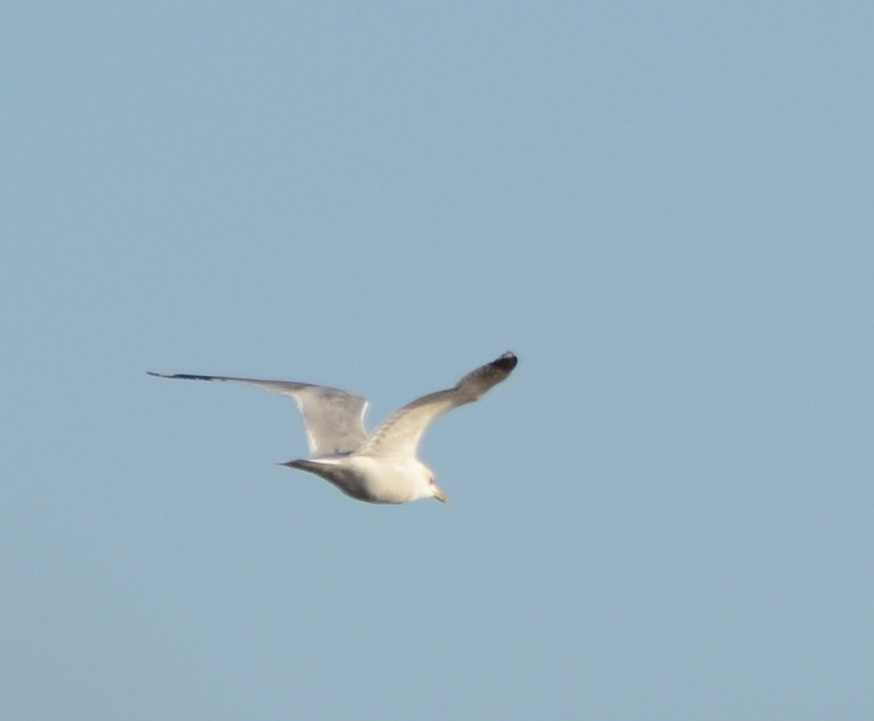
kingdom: Animalia
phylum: Chordata
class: Aves
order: Charadriiformes
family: Laridae
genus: Larus
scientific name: Larus argentatus
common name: Herring gull
